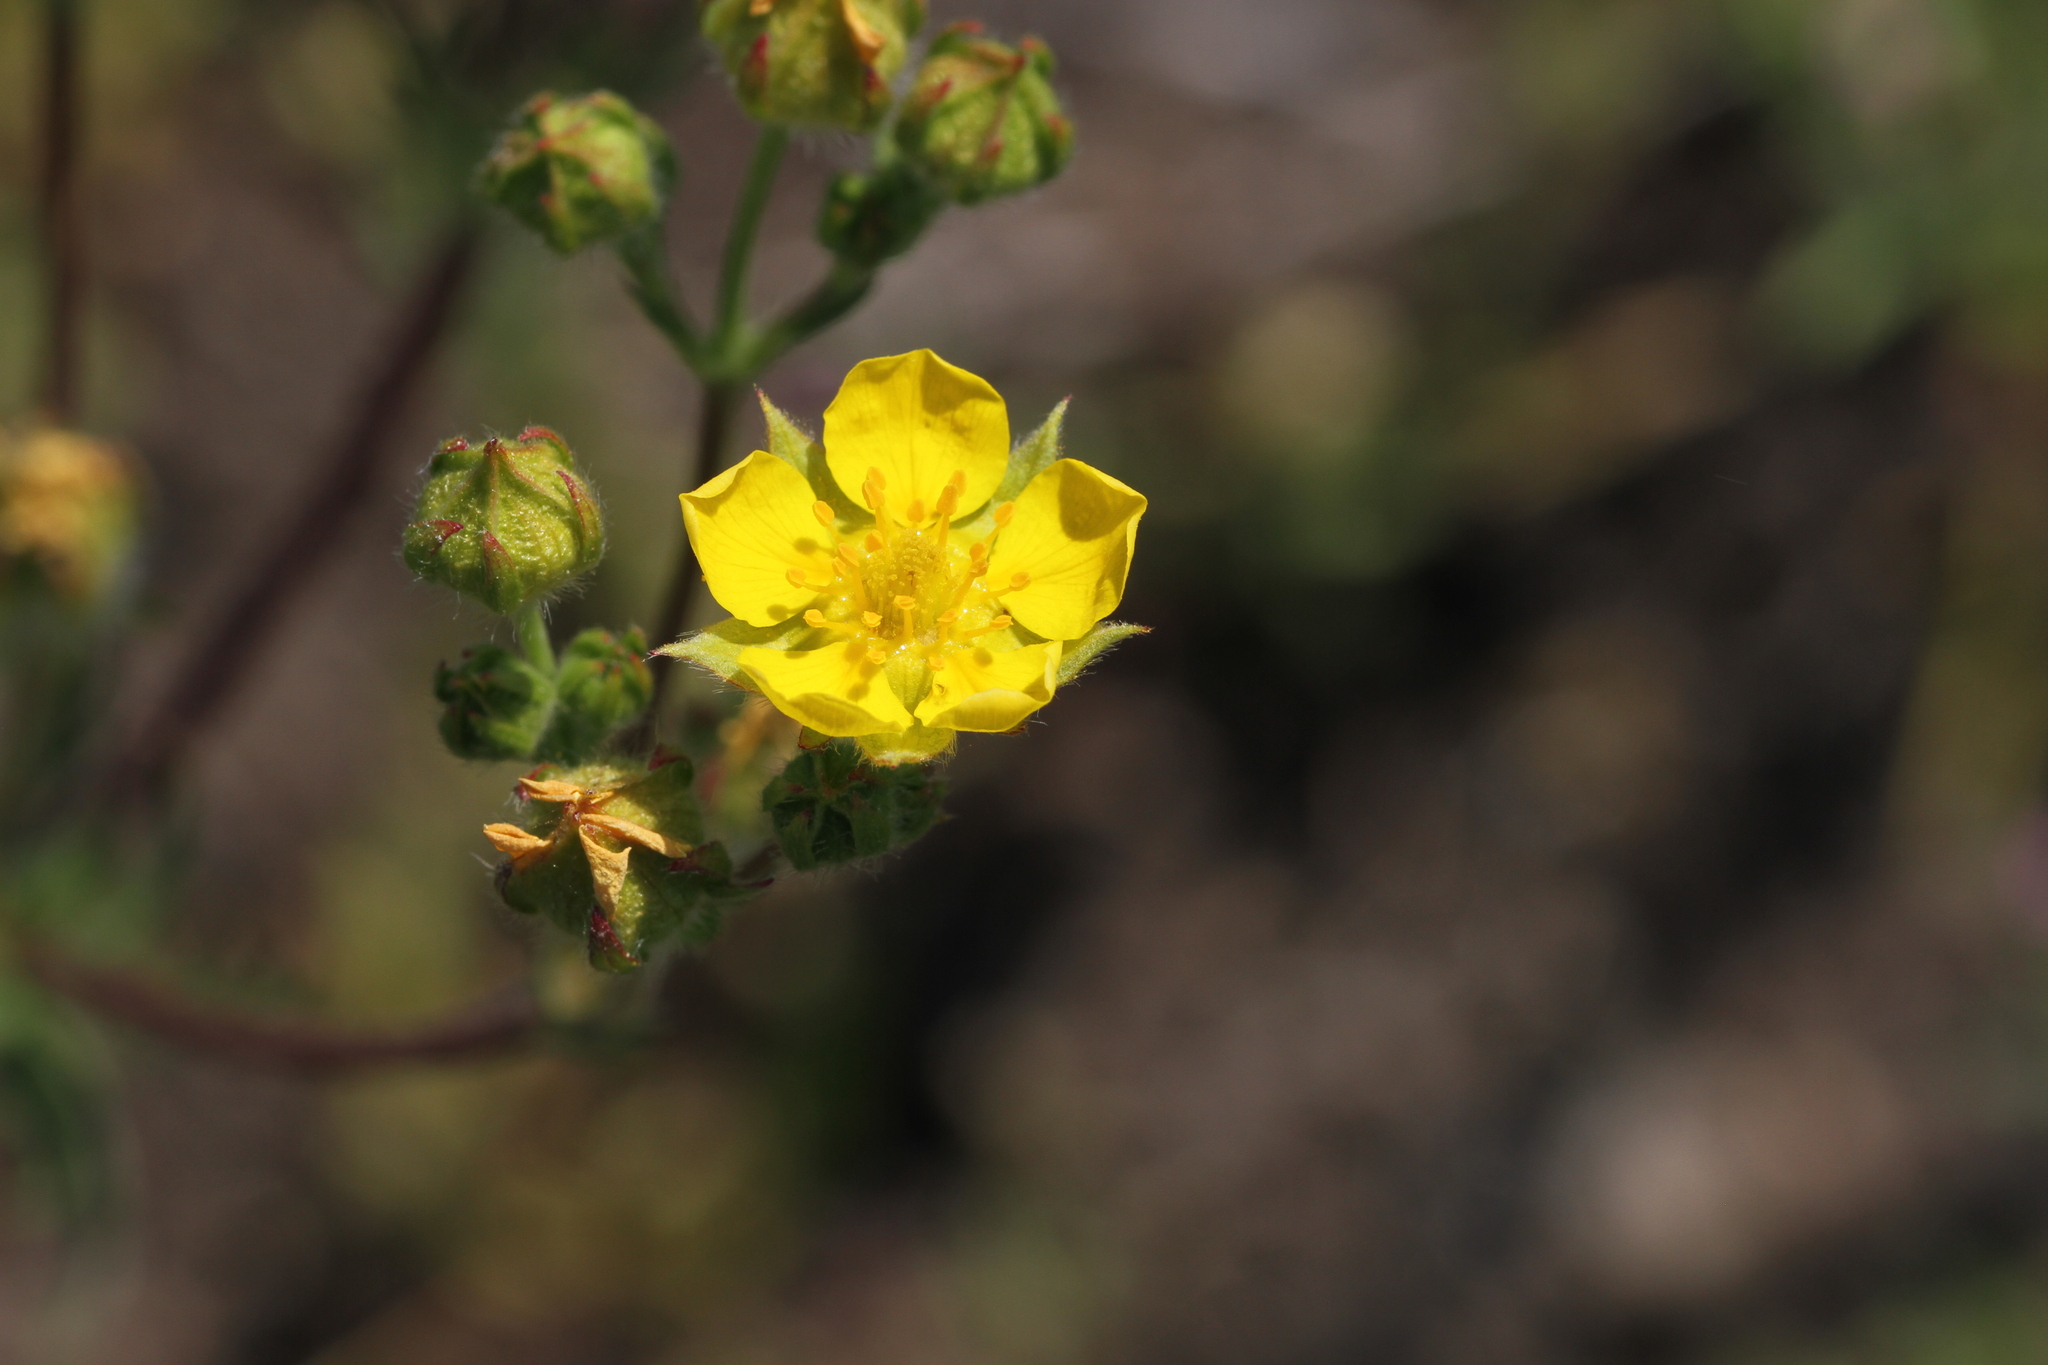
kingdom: Plantae
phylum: Tracheophyta
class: Magnoliopsida
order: Rosales
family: Rosaceae
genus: Potentilla
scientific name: Potentilla gracilis
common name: Graceful cinquefoil
